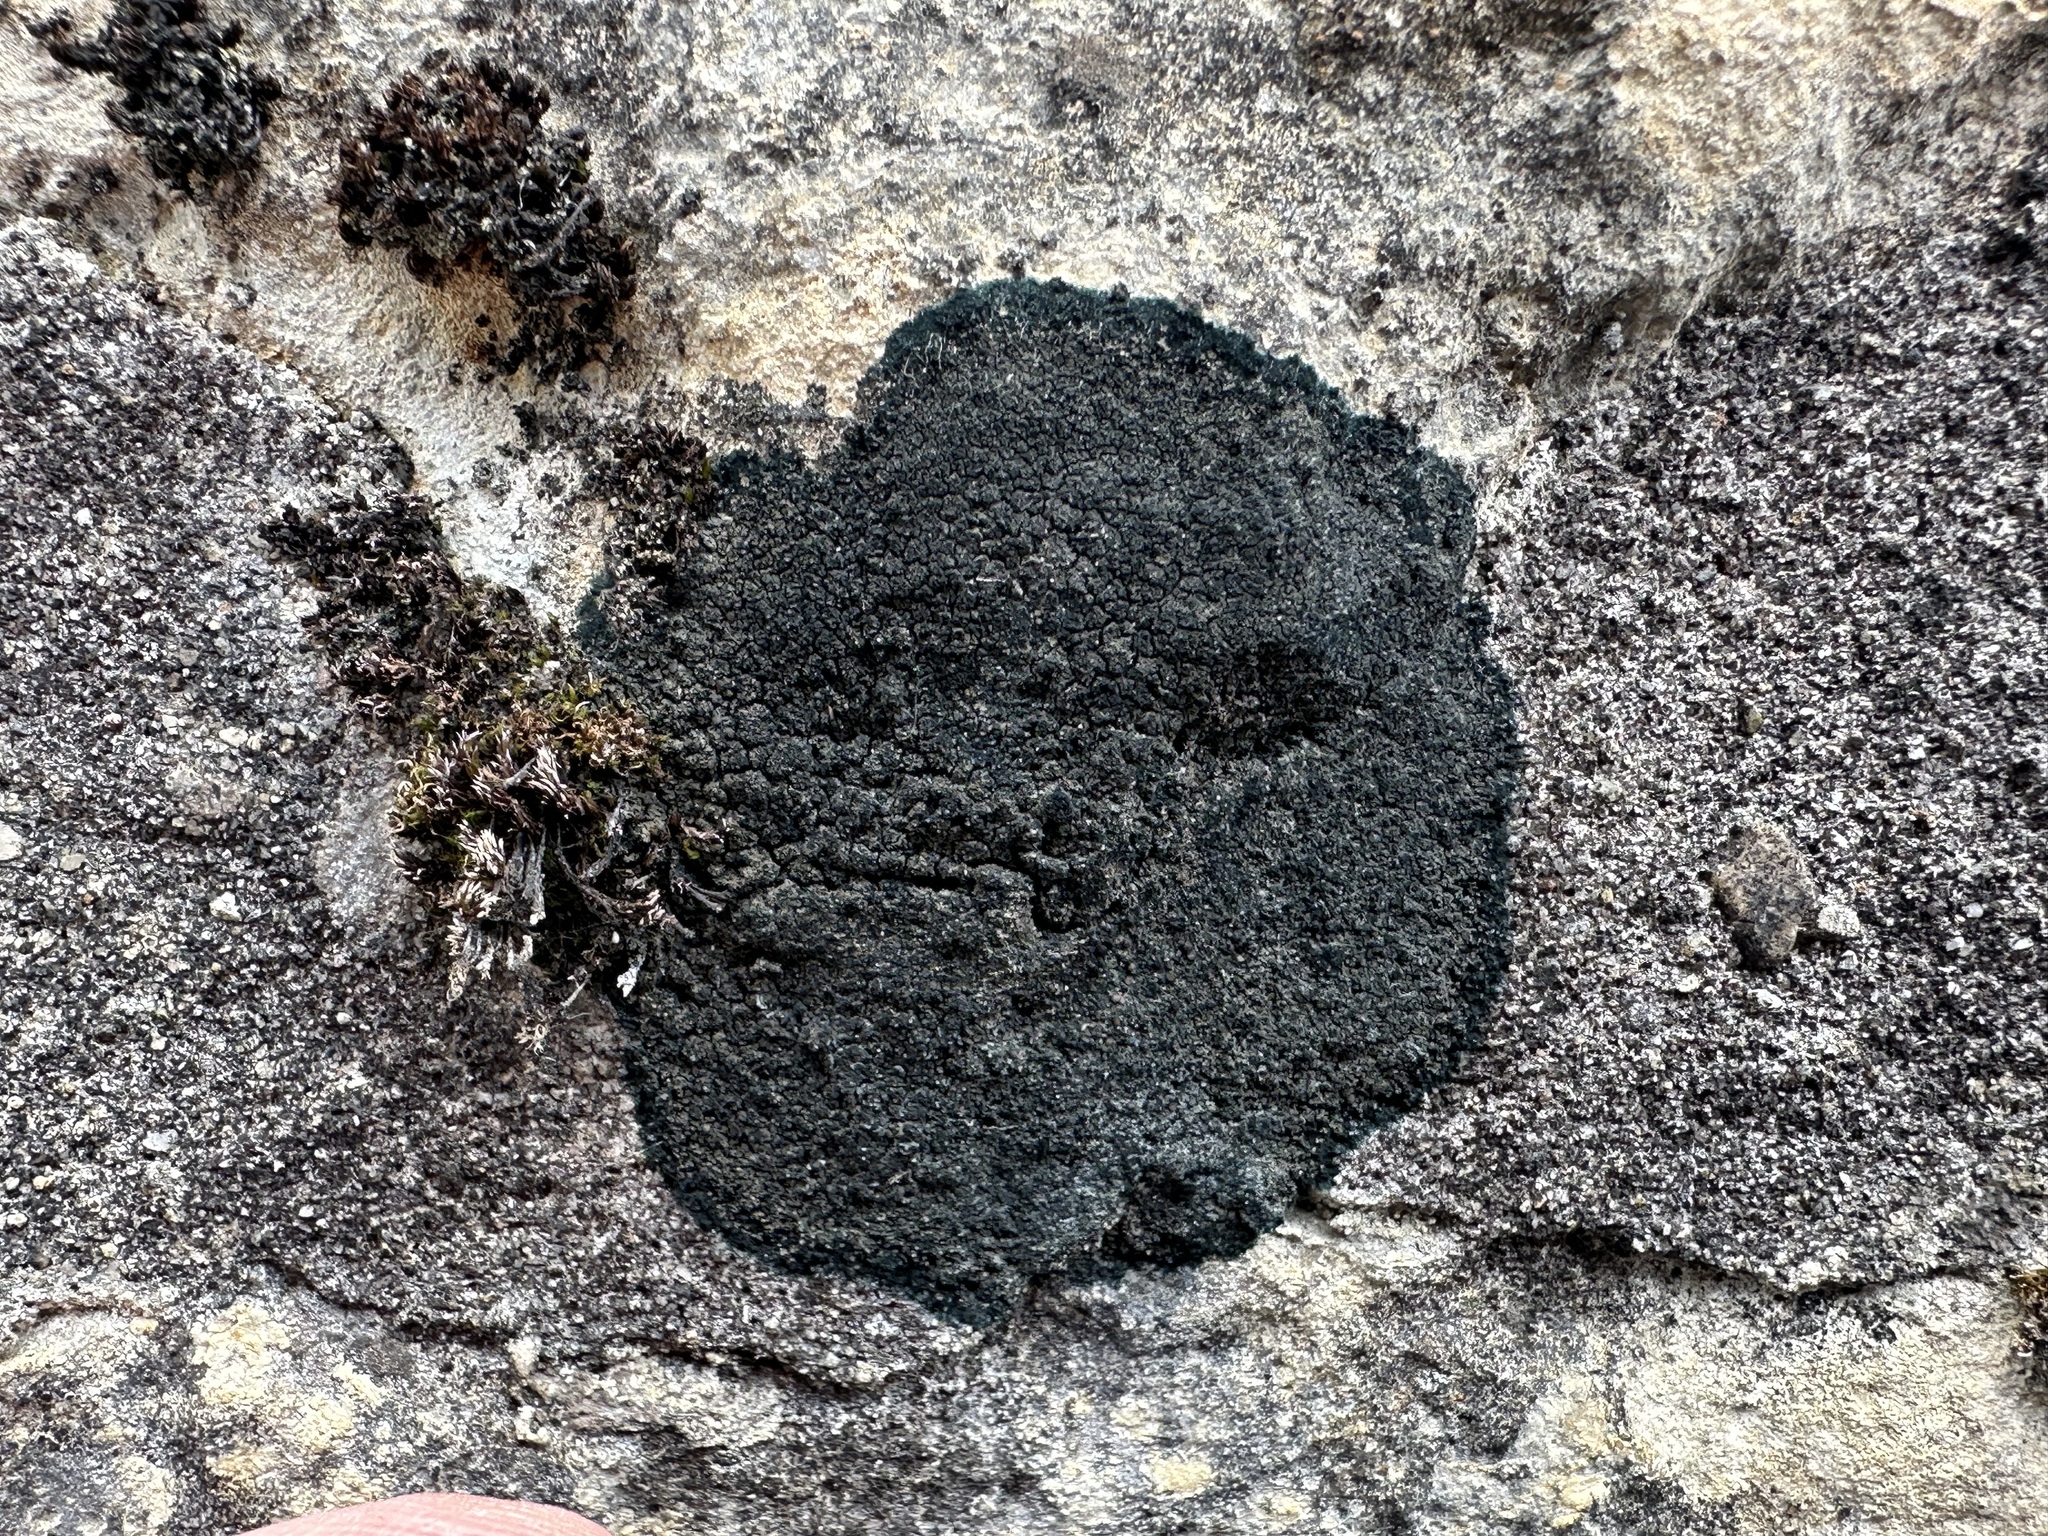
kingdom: Fungi
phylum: Ascomycota
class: Lecanoromycetes
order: Peltigerales
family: Placynthiaceae
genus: Placynthium
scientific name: Placynthium nigrum
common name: Blackthread lichen
